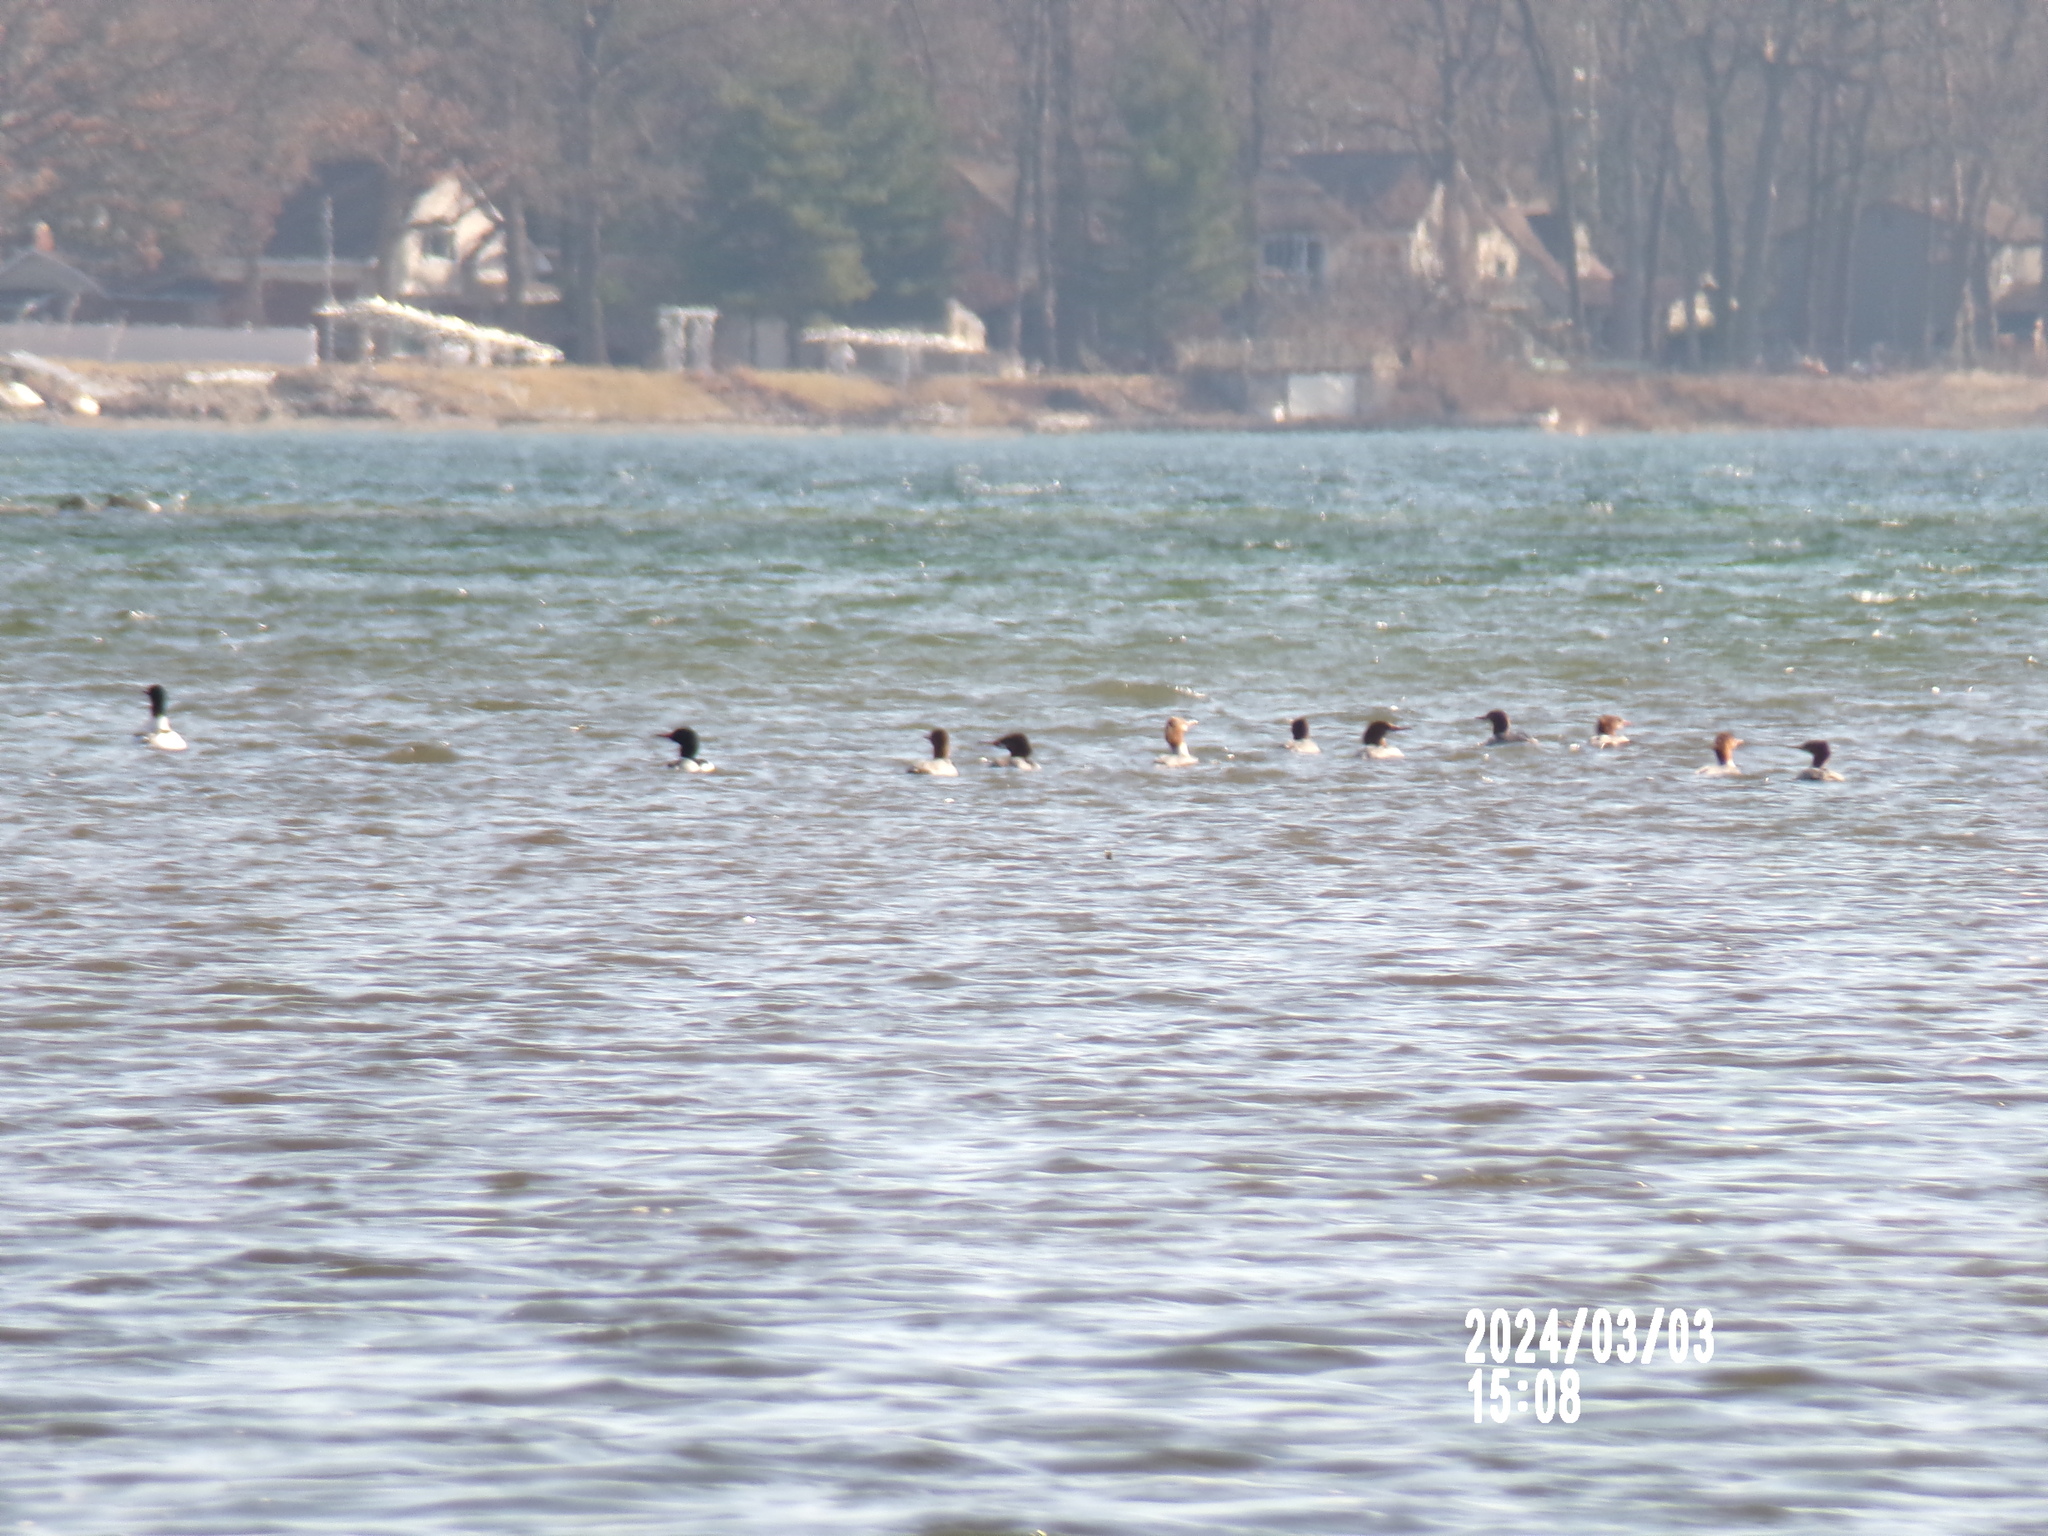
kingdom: Animalia
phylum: Chordata
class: Aves
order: Anseriformes
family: Anatidae
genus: Mergus
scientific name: Mergus merganser
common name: Common merganser
